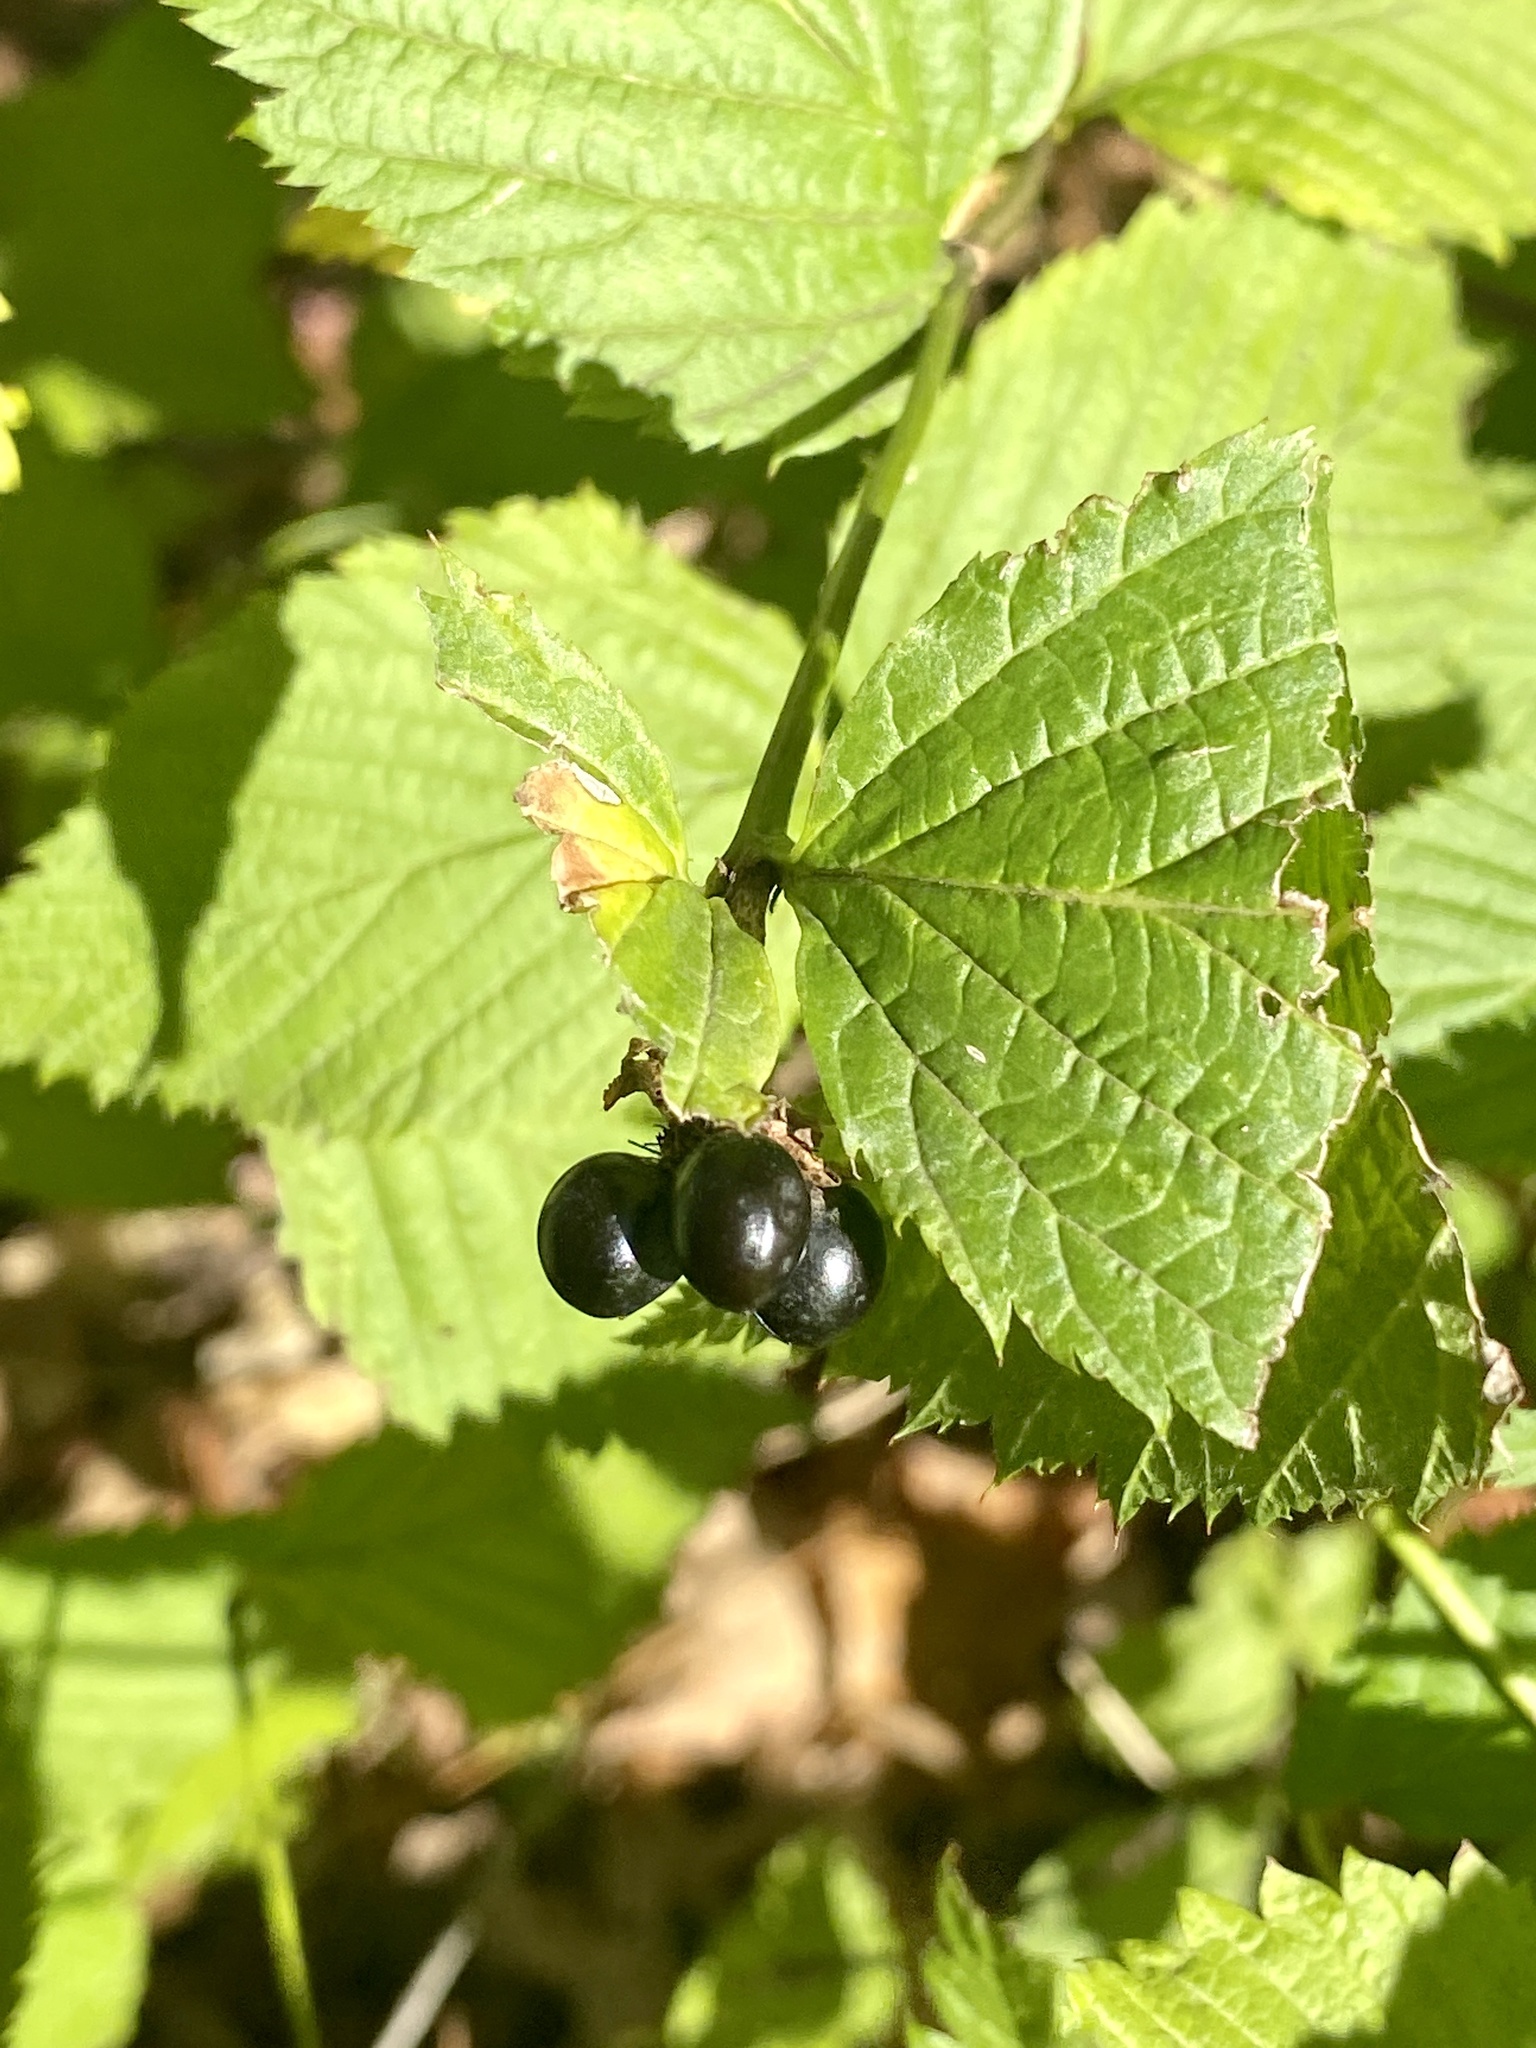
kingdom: Plantae
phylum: Tracheophyta
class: Magnoliopsida
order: Rosales
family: Rosaceae
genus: Rhodotypos
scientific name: Rhodotypos scandens
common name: Jetbead
